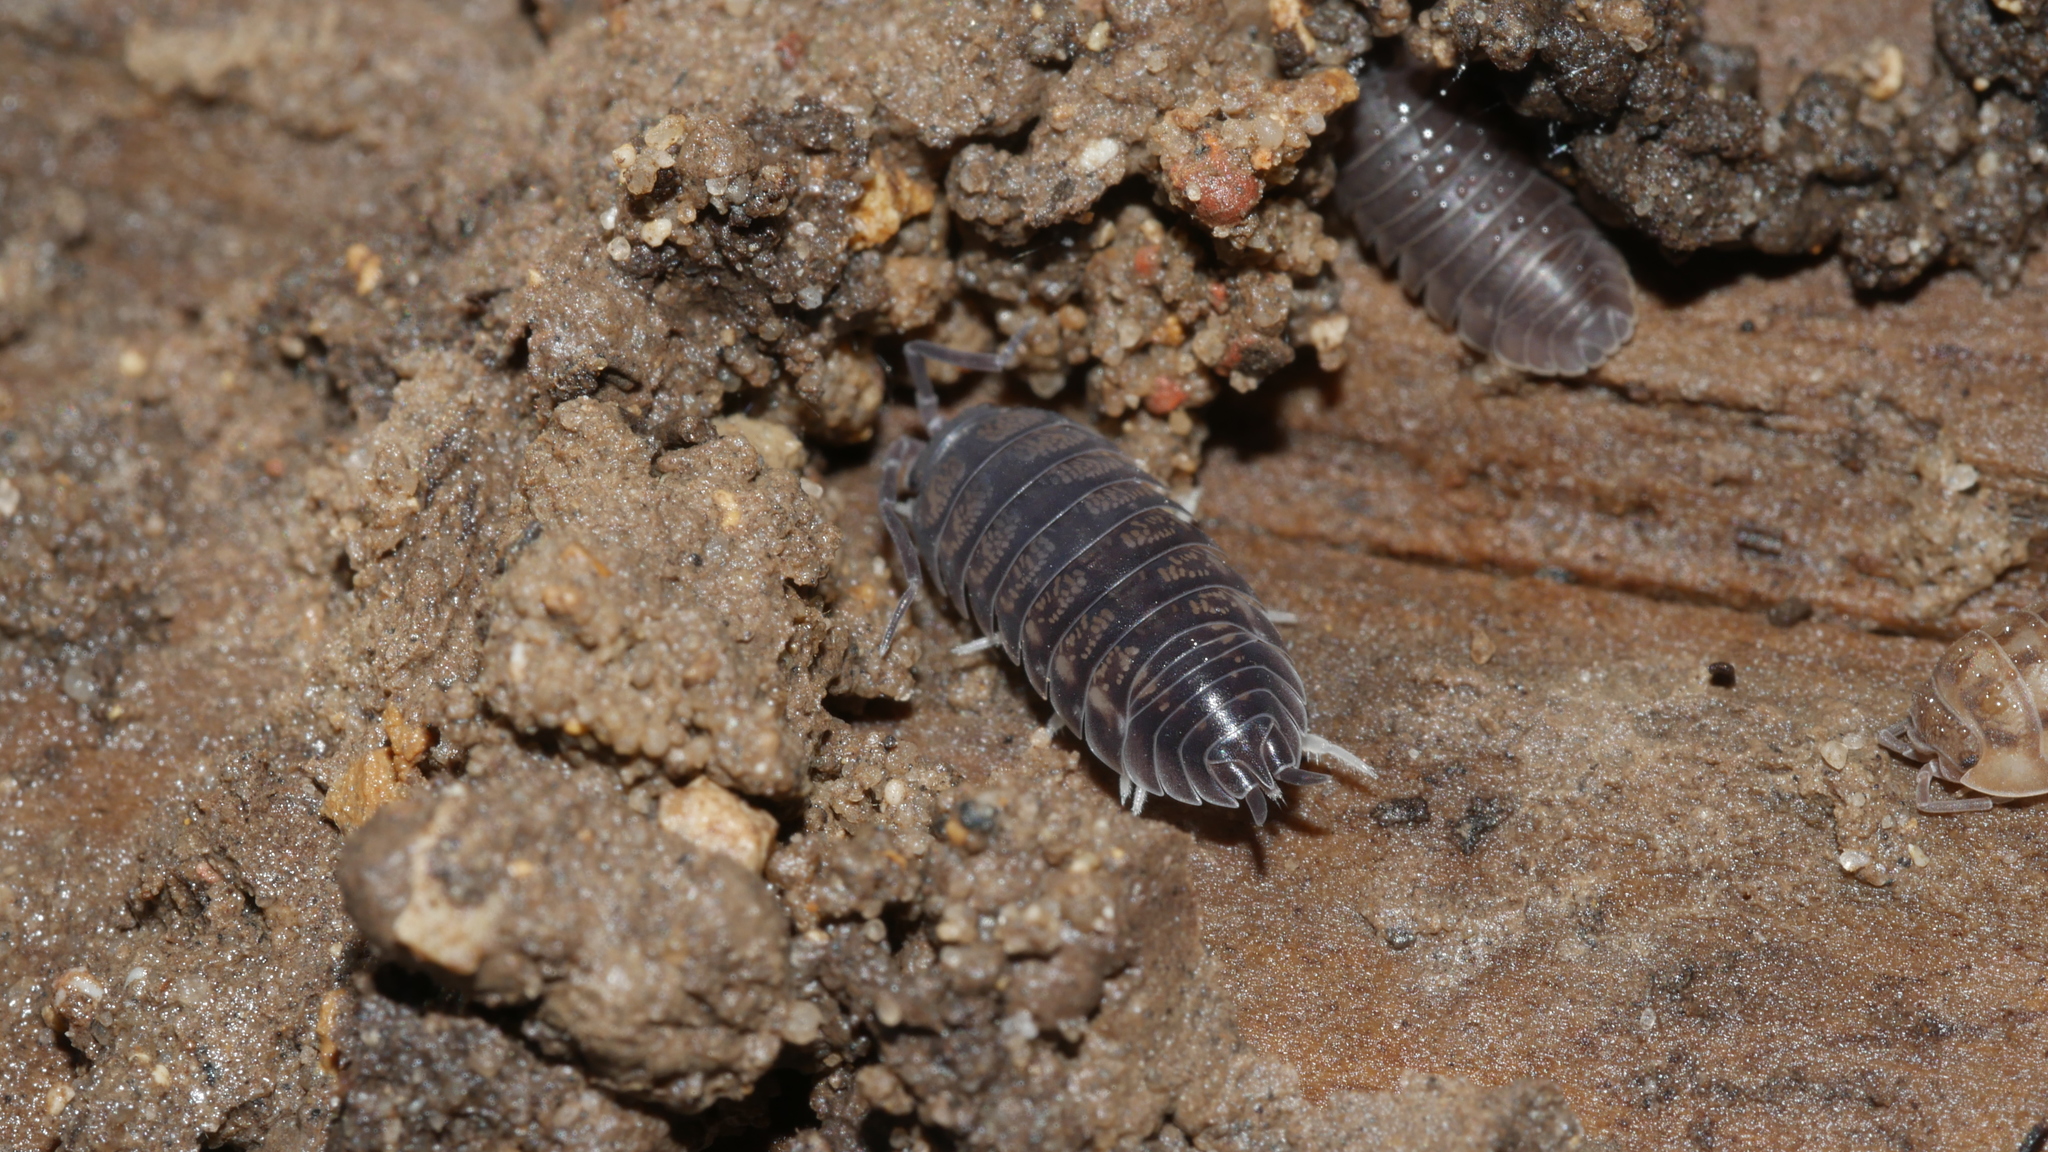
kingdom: Animalia
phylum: Arthropoda
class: Malacostraca
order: Isopoda
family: Cylisticidae
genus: Cylisticus
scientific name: Cylisticus convexus
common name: Curly woodlouse
